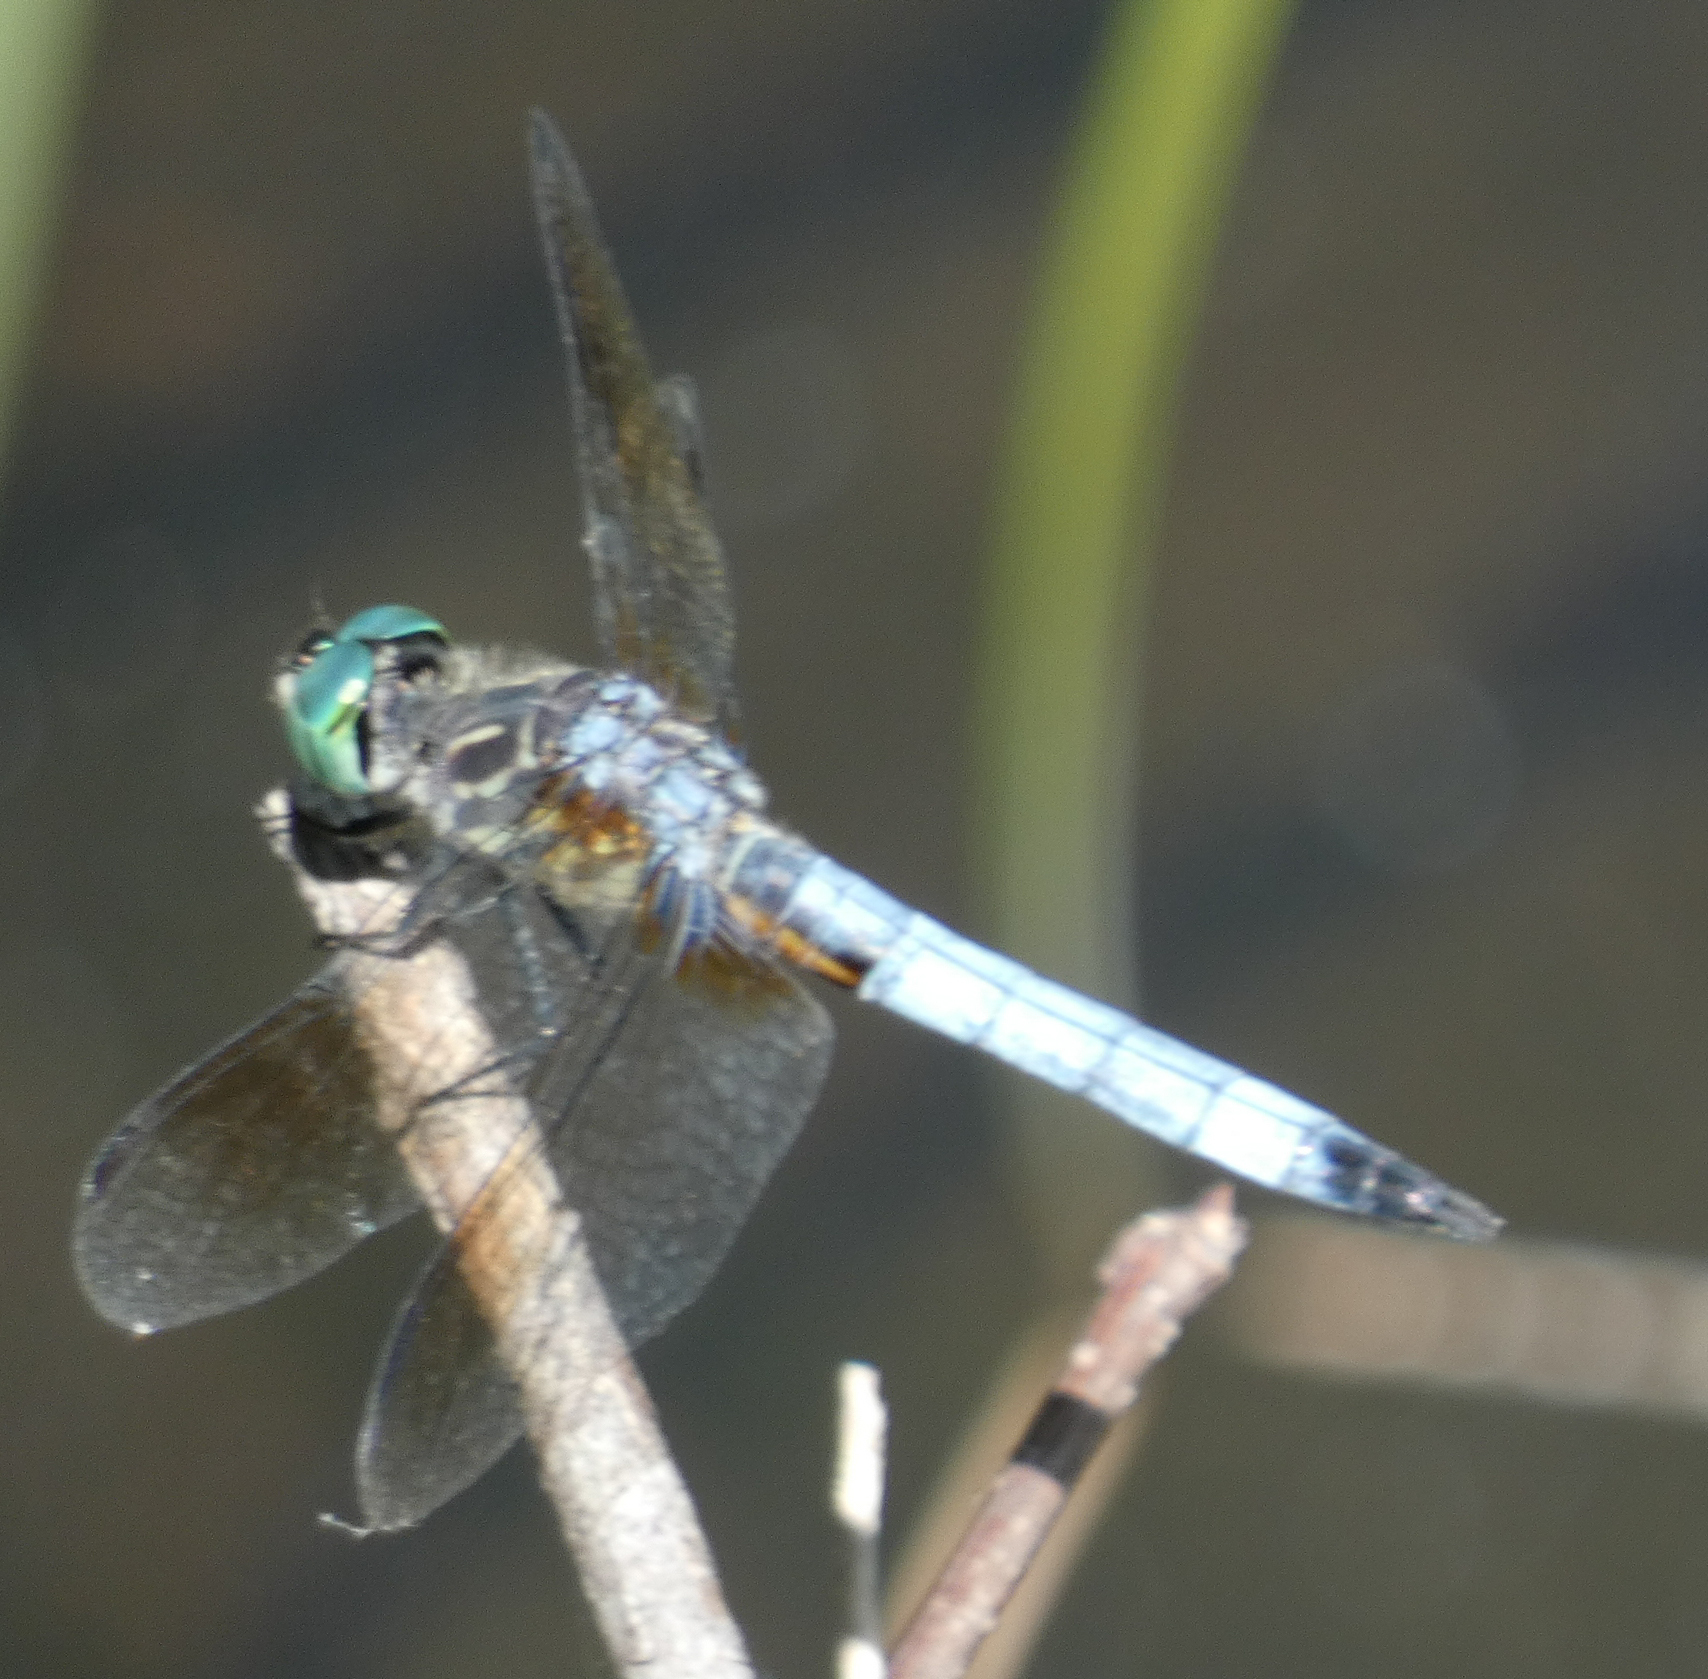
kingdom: Animalia
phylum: Arthropoda
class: Insecta
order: Odonata
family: Libellulidae
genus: Pachydiplax
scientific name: Pachydiplax longipennis
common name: Blue dasher
